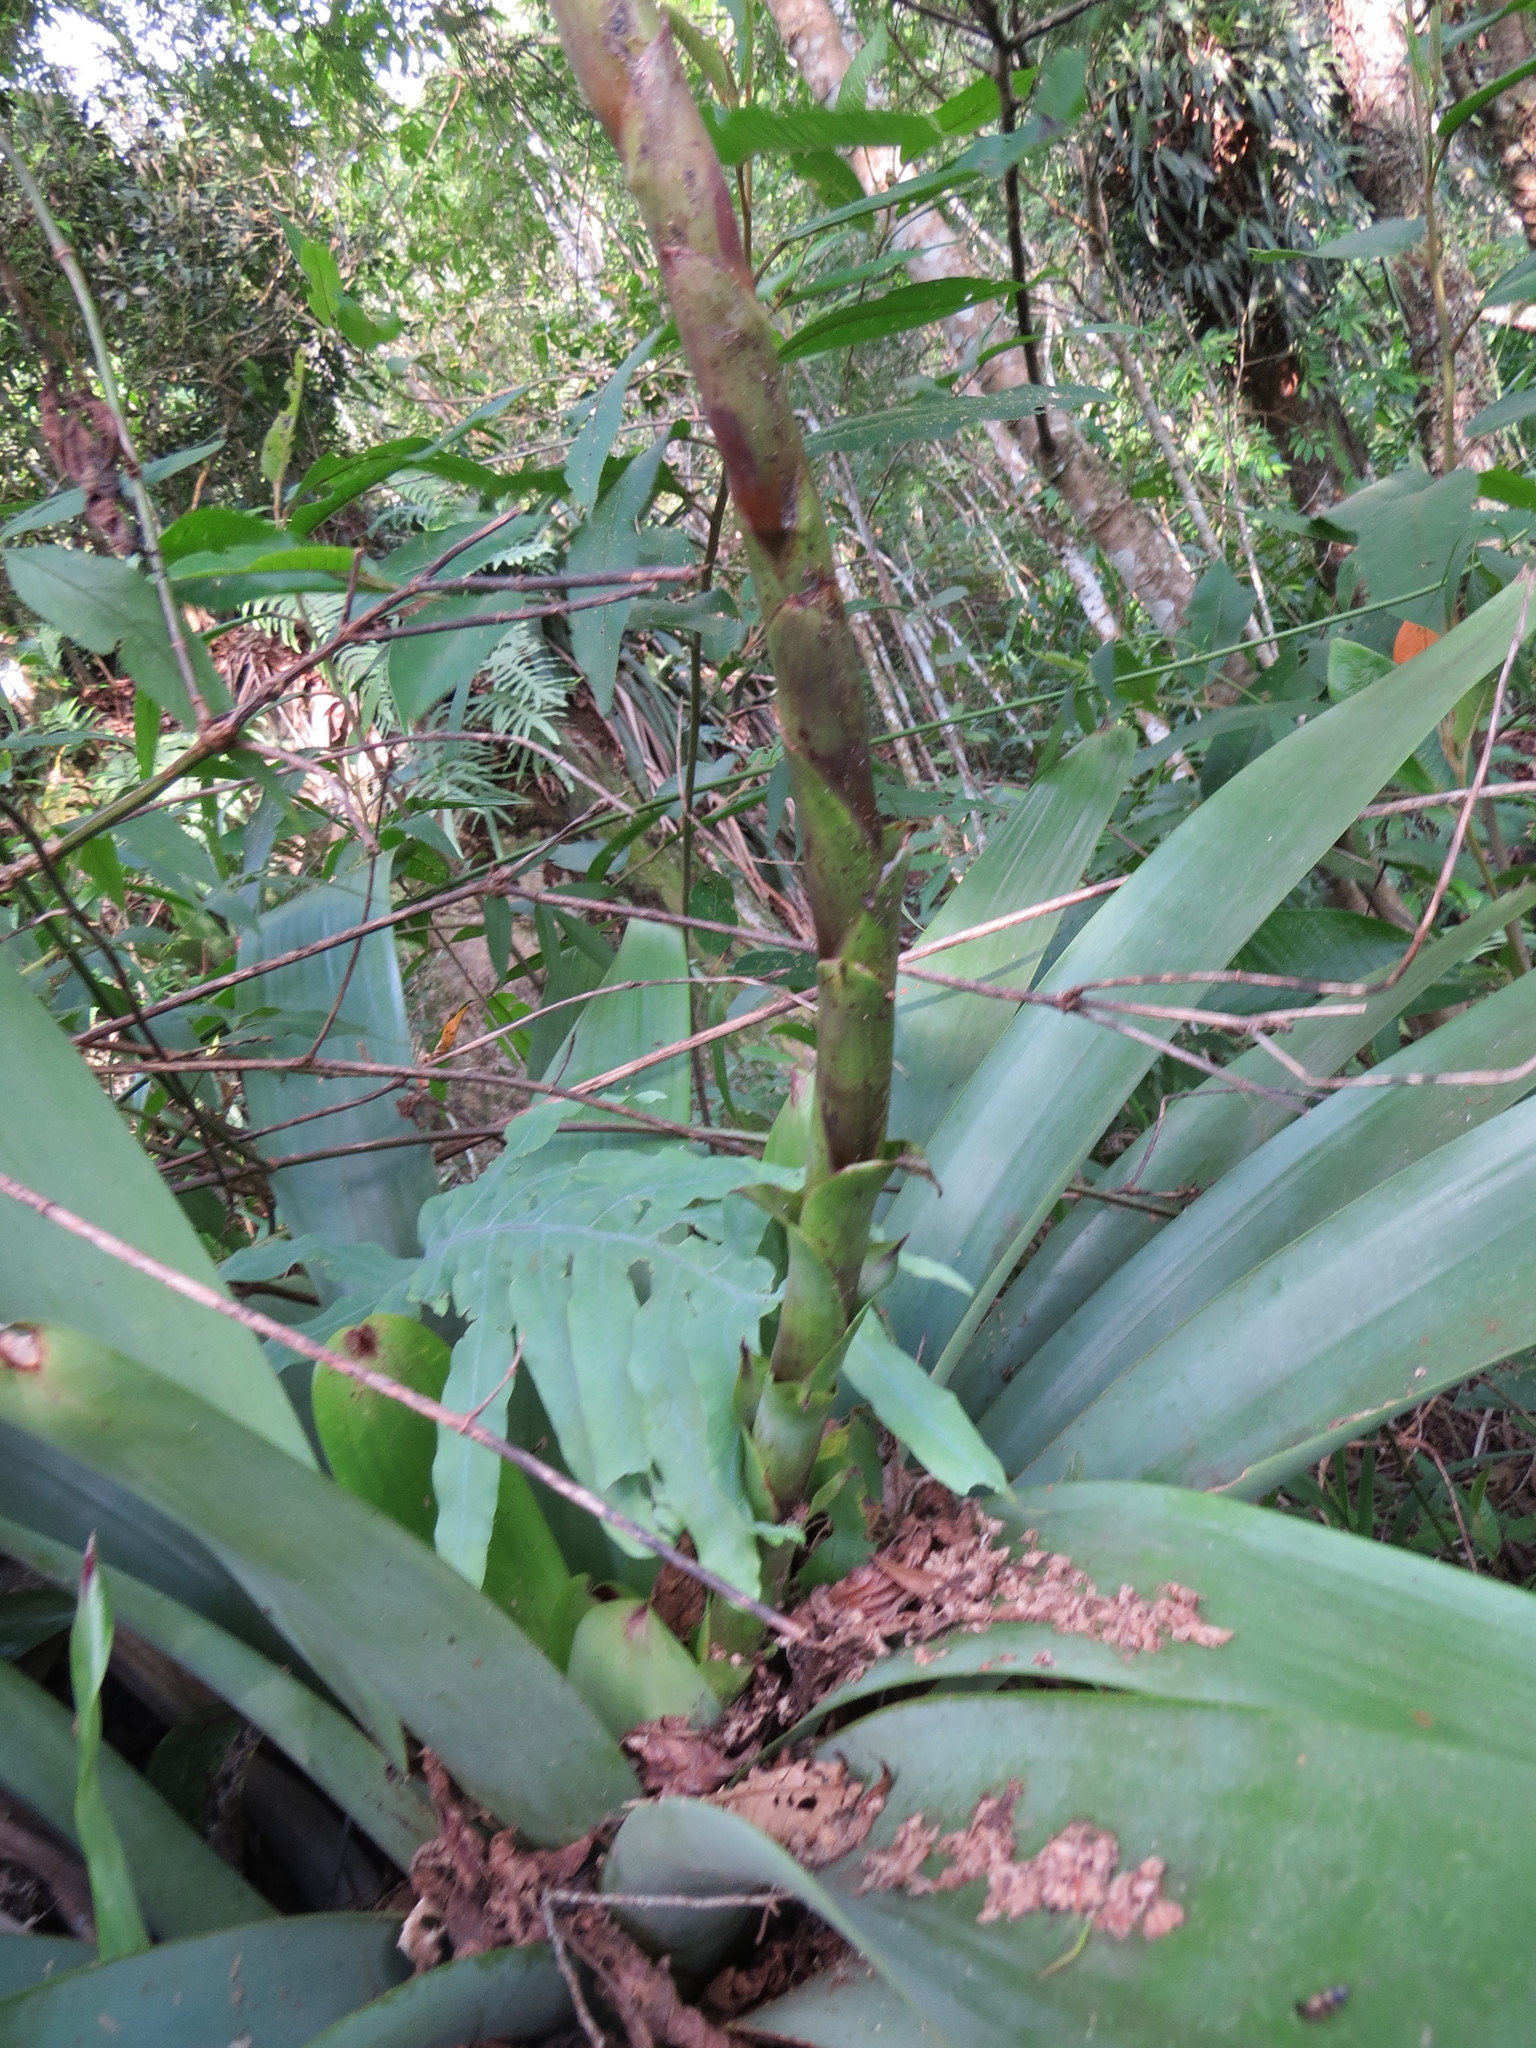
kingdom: Plantae
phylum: Tracheophyta
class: Liliopsida
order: Poales
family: Bromeliaceae
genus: Vriesea
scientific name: Vriesea bituminosa
